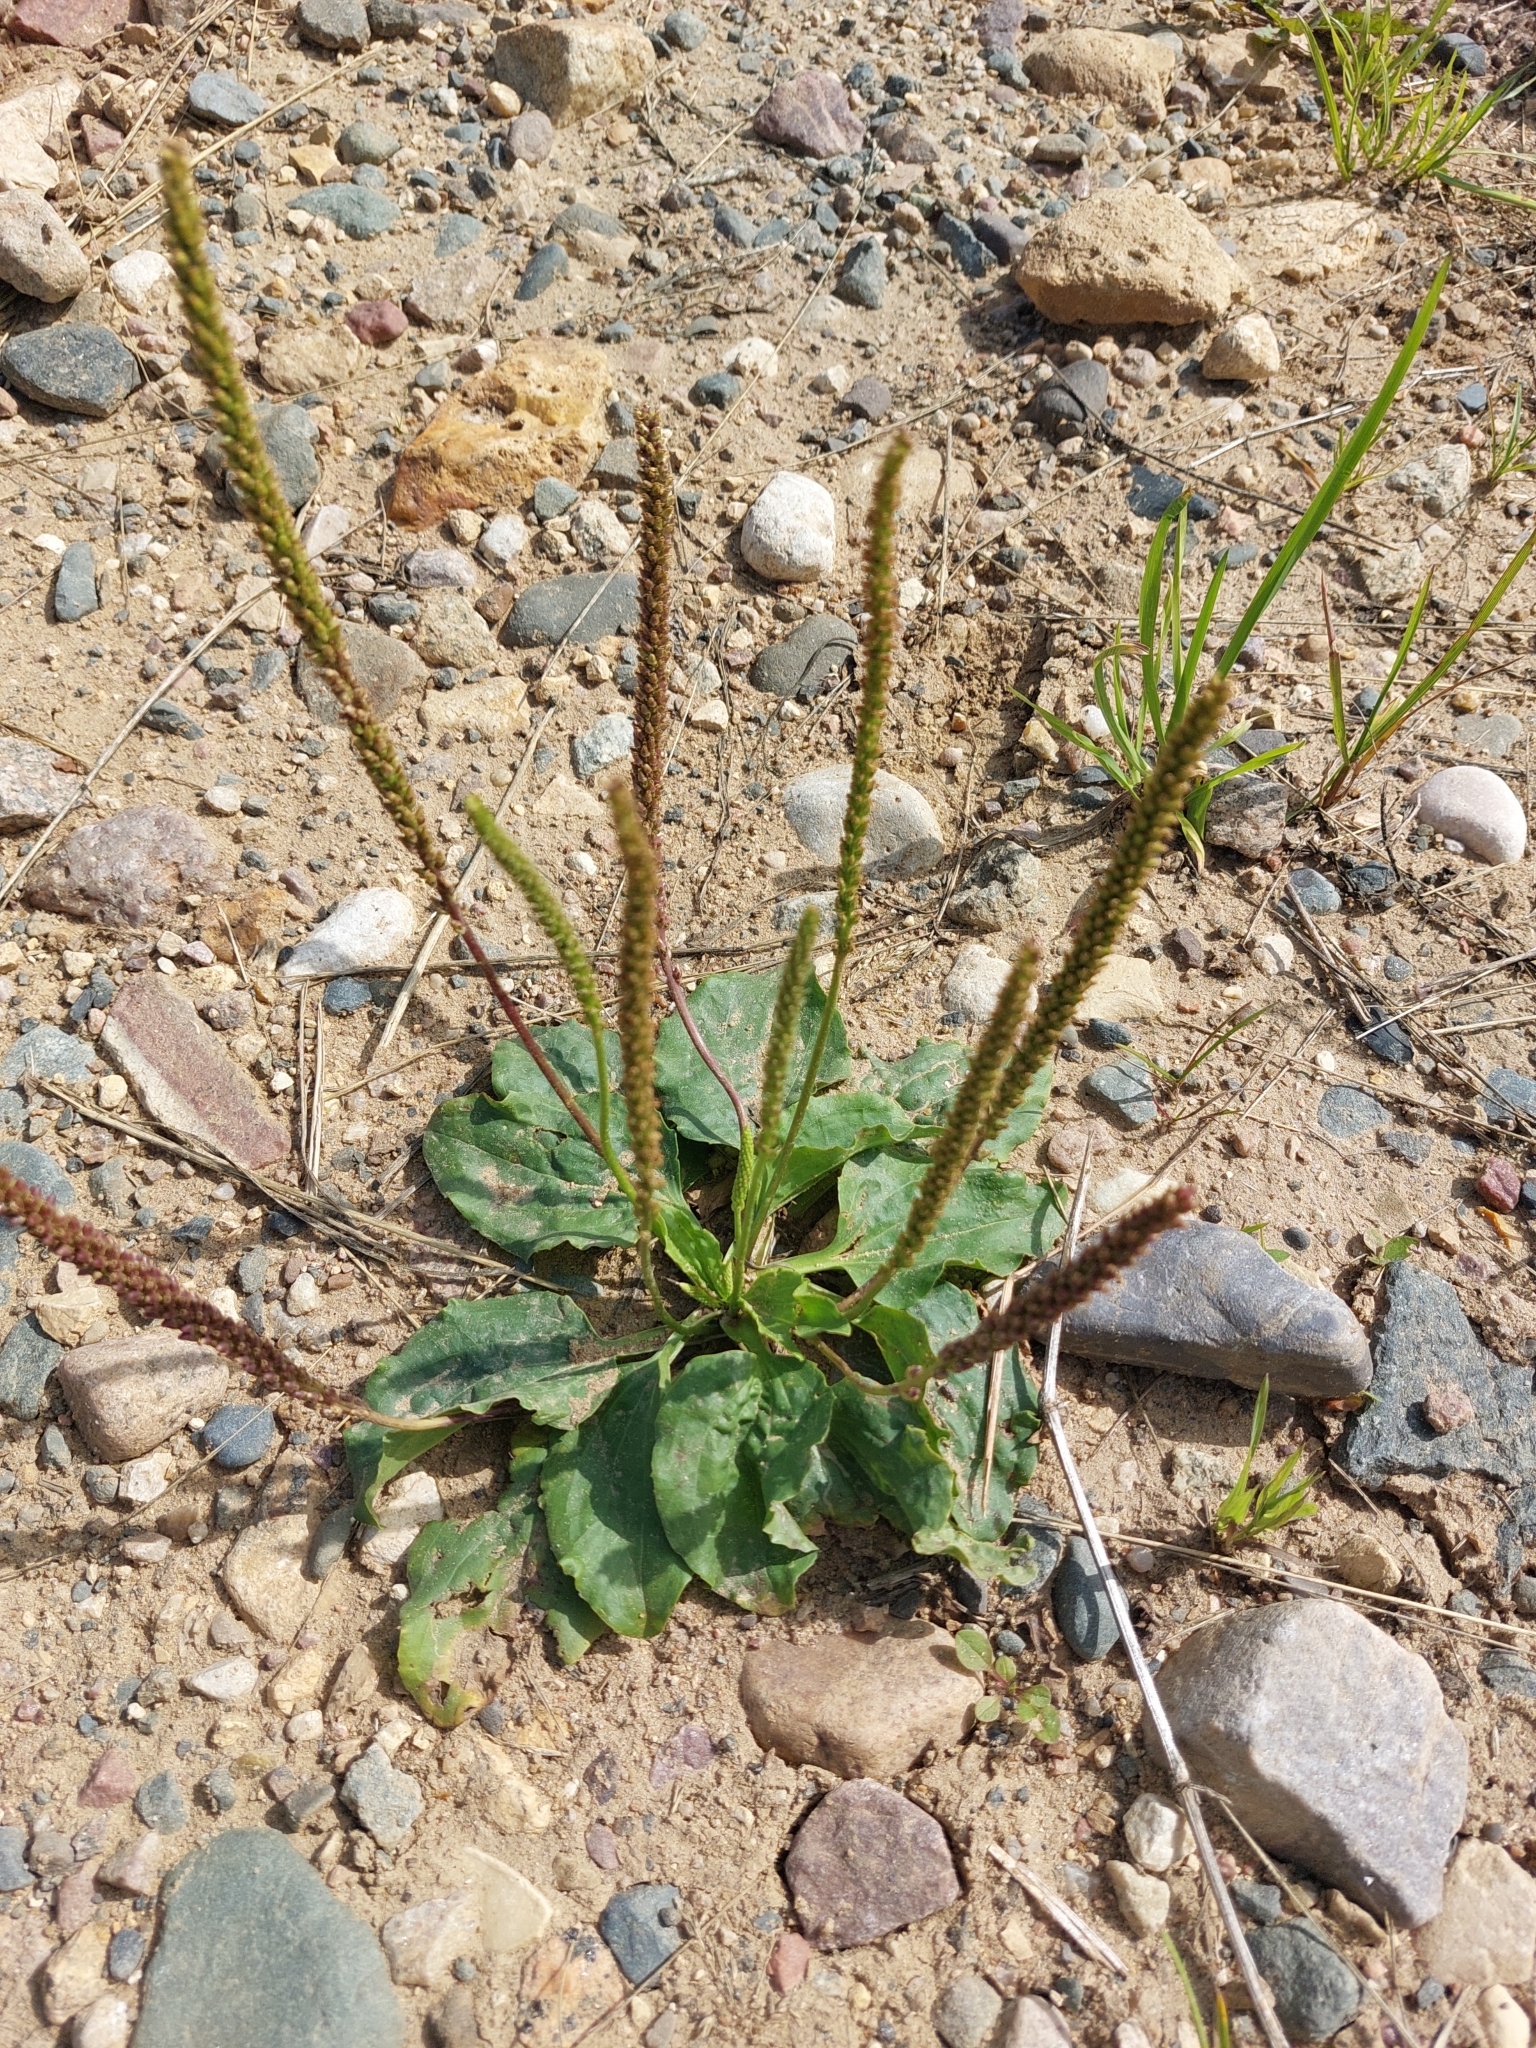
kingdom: Plantae
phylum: Tracheophyta
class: Magnoliopsida
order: Lamiales
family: Plantaginaceae
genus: Plantago
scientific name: Plantago major
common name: Common plantain
